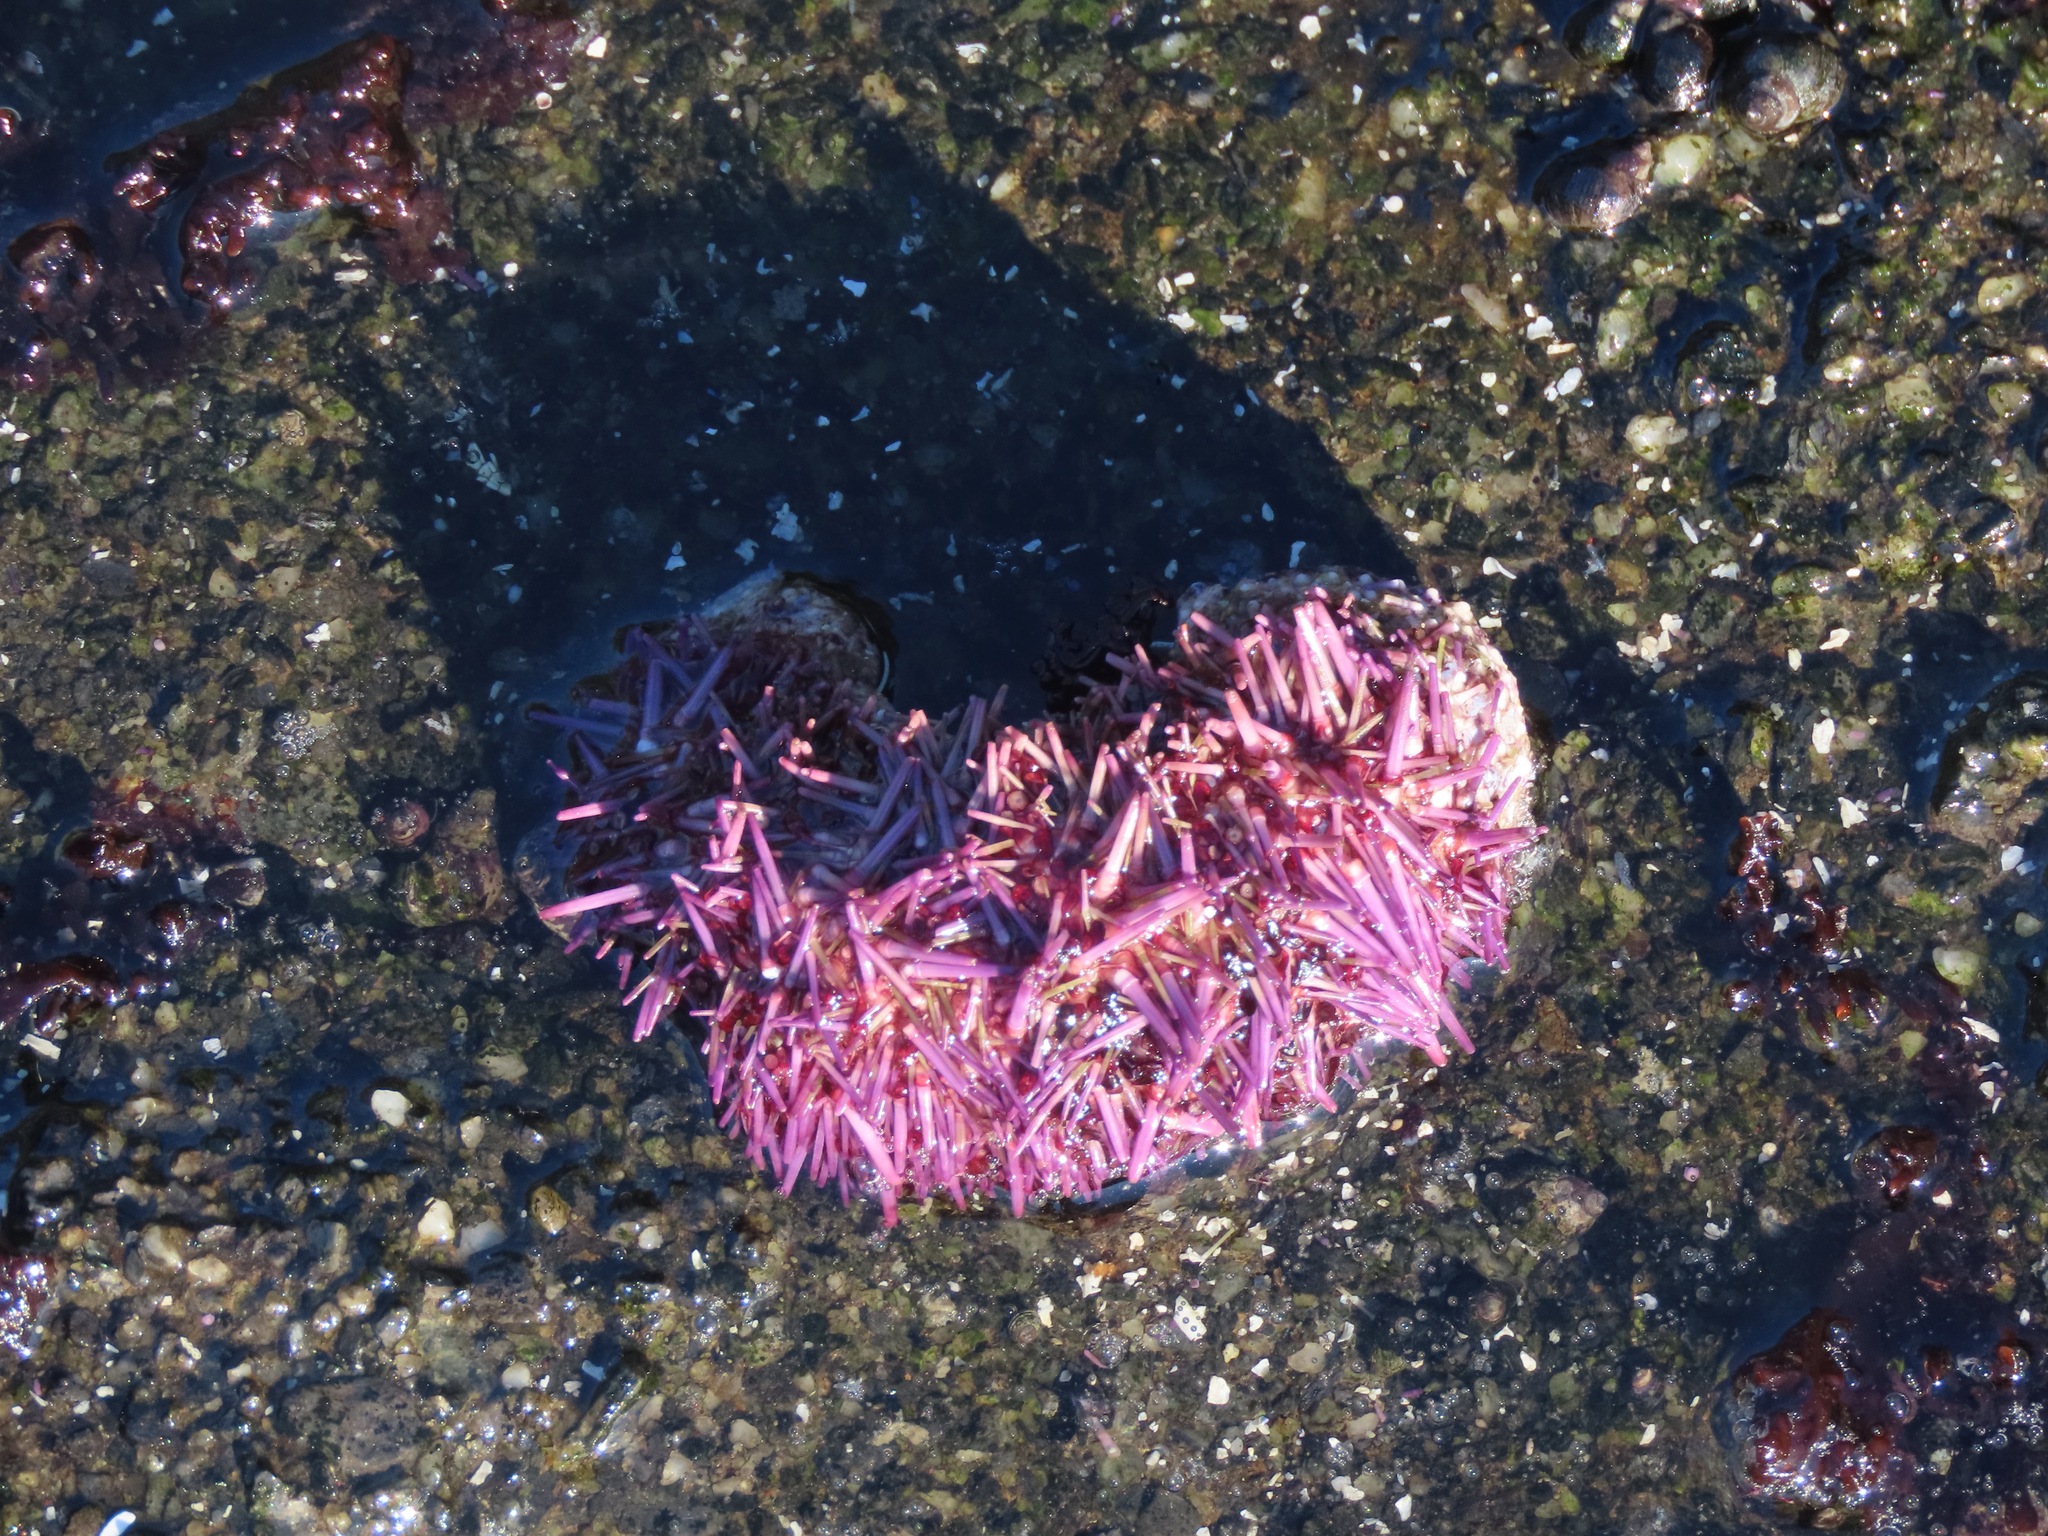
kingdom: Animalia
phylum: Echinodermata
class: Echinoidea
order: Camarodonta
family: Strongylocentrotidae
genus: Strongylocentrotus
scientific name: Strongylocentrotus purpuratus
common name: Purple sea urchin
